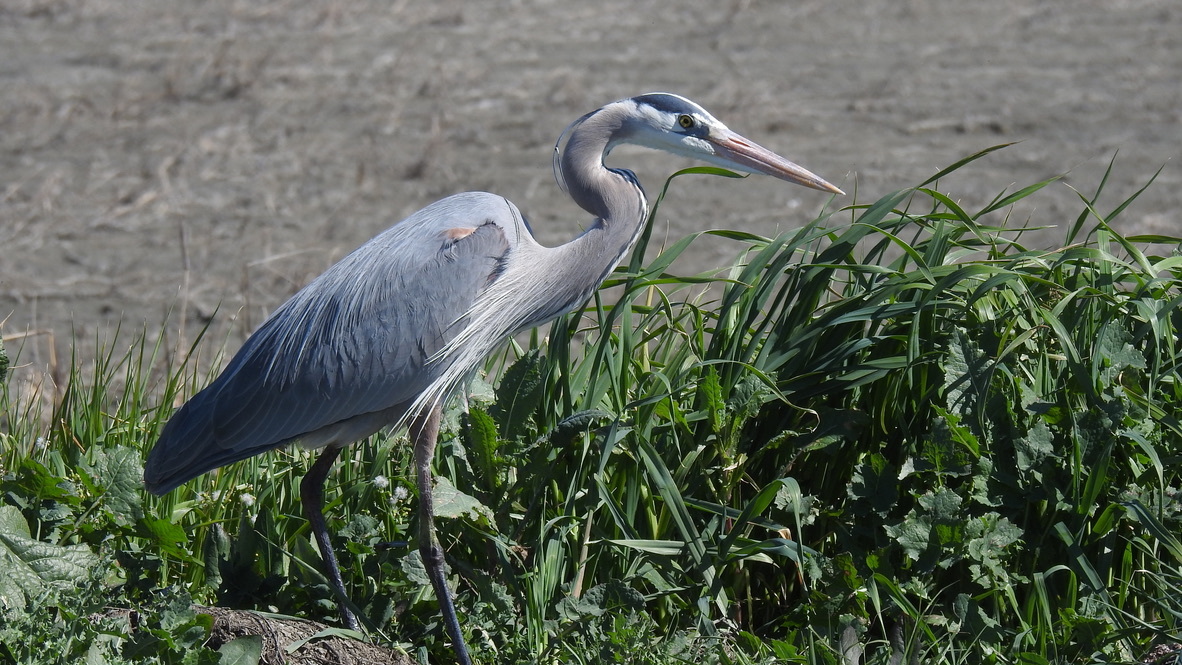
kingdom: Animalia
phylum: Chordata
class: Aves
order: Pelecaniformes
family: Ardeidae
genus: Ardea
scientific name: Ardea herodias
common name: Great blue heron
